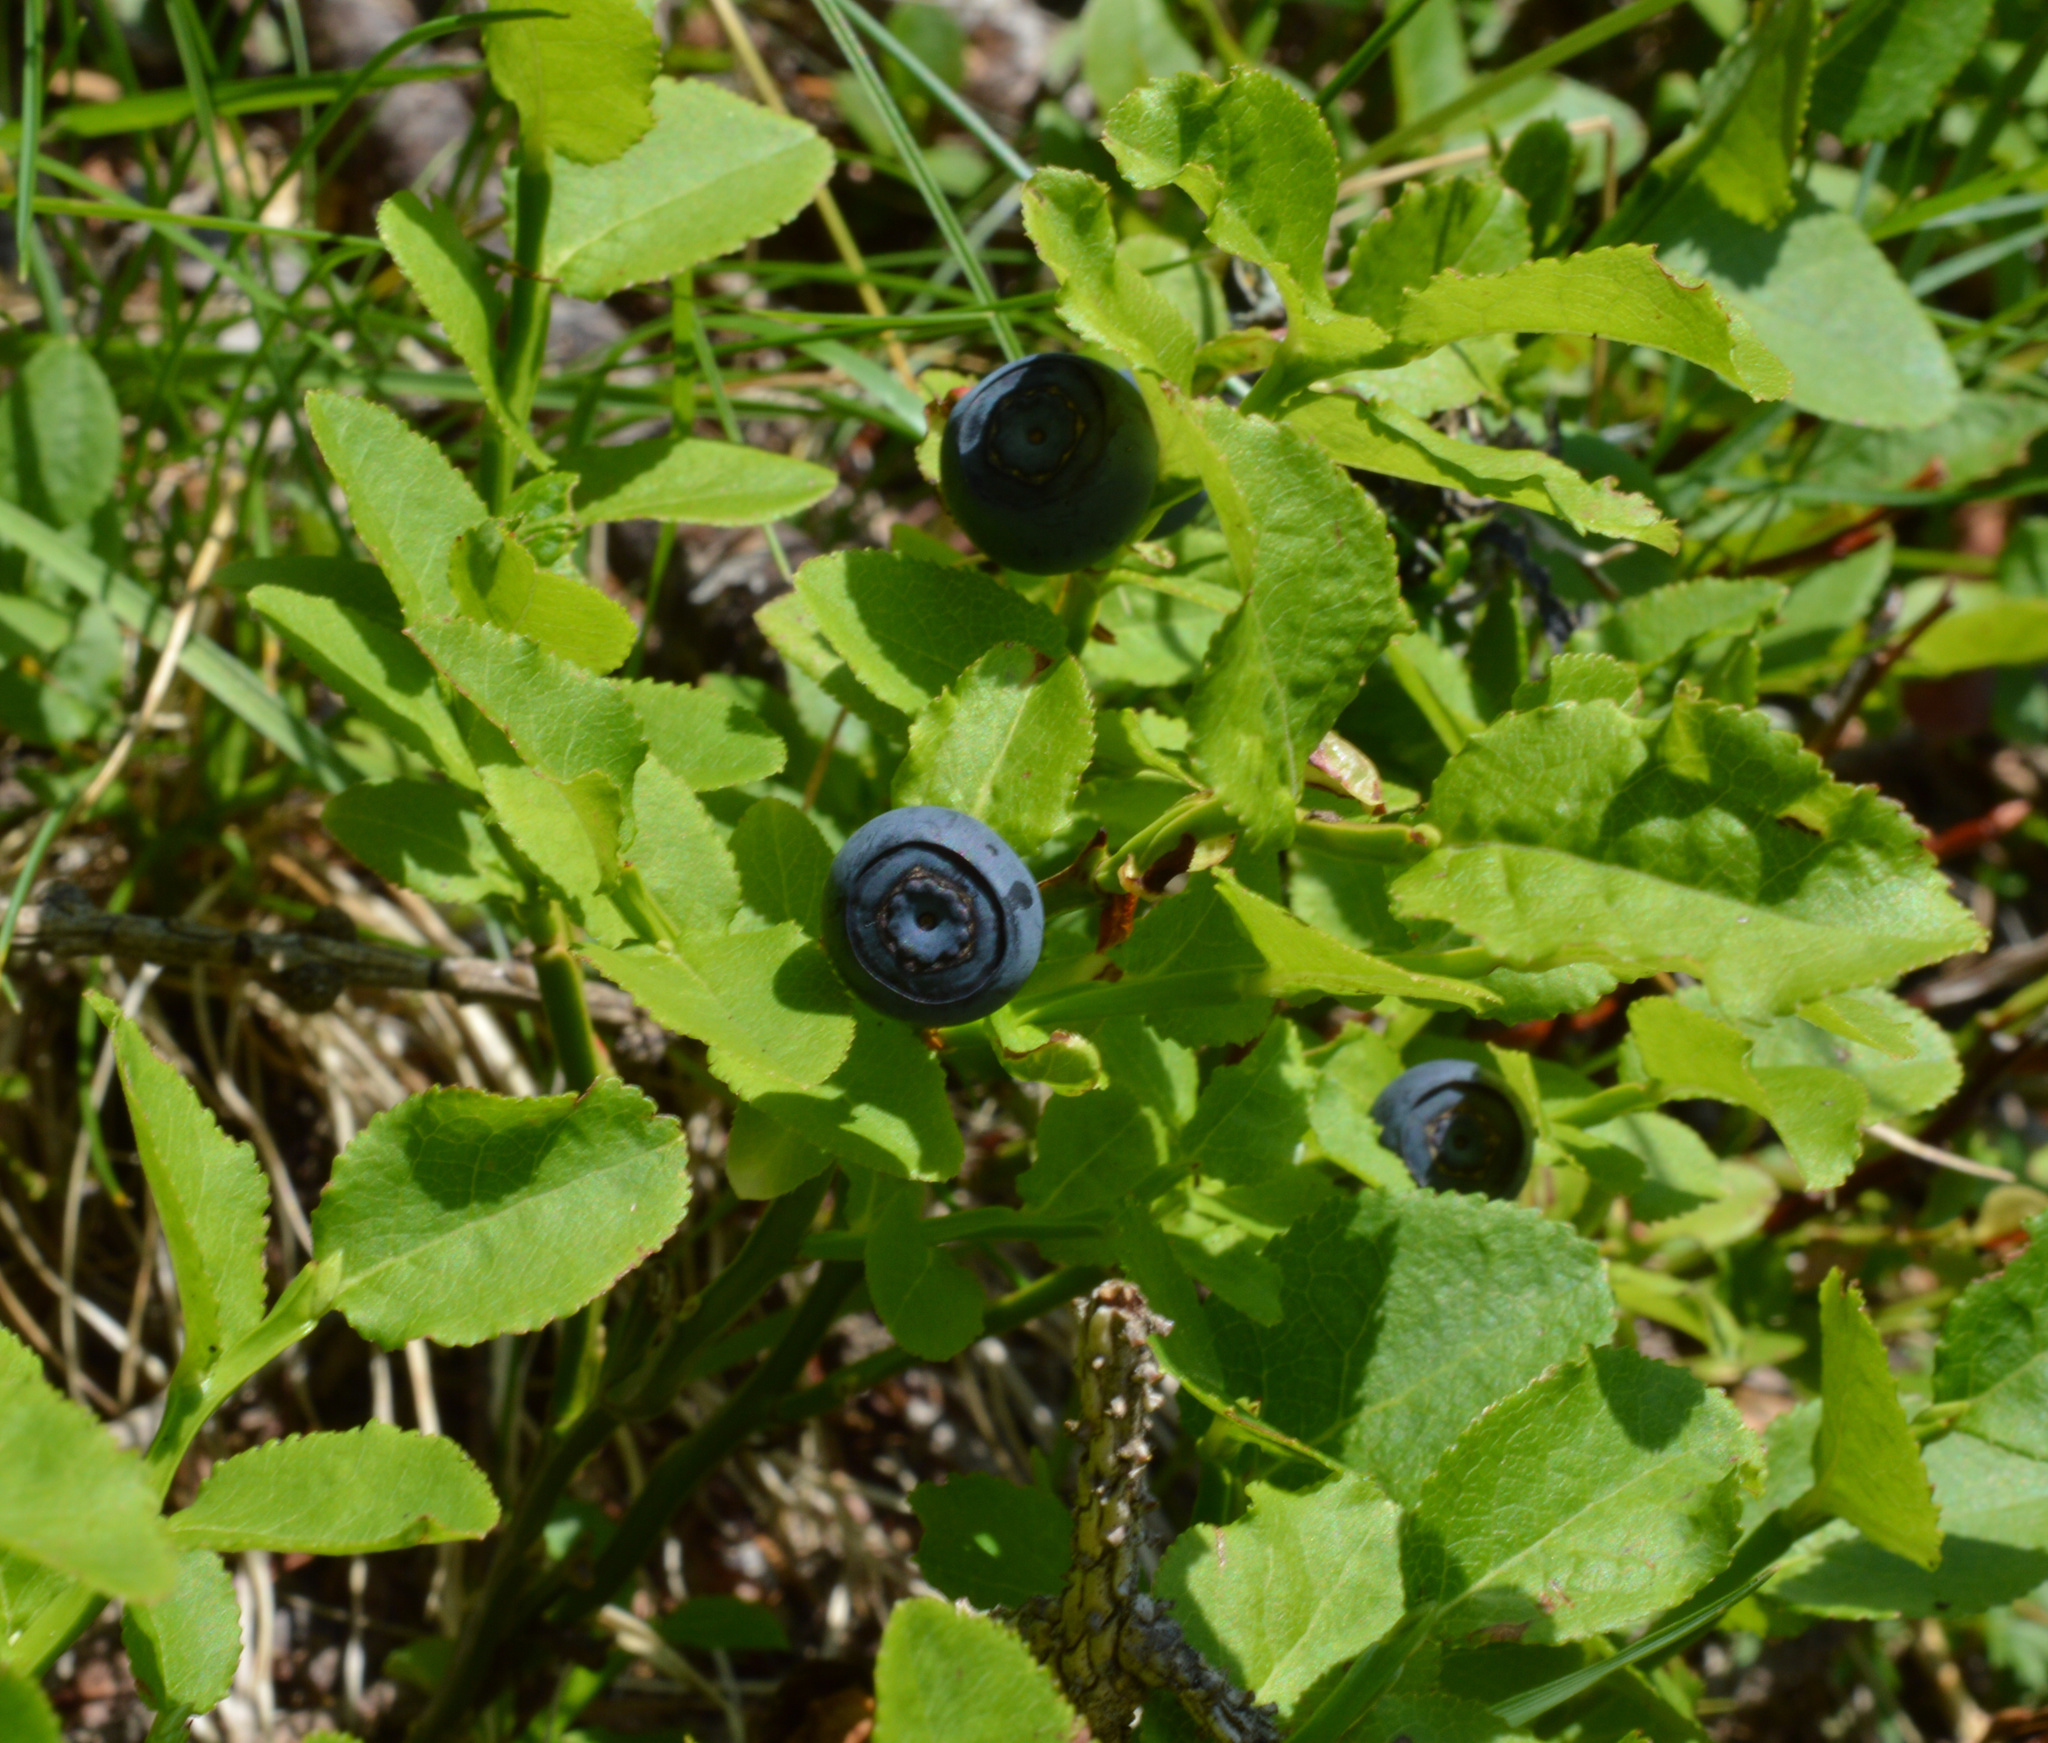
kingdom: Plantae
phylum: Tracheophyta
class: Magnoliopsida
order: Ericales
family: Ericaceae
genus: Vaccinium
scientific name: Vaccinium myrtillus
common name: Bilberry
